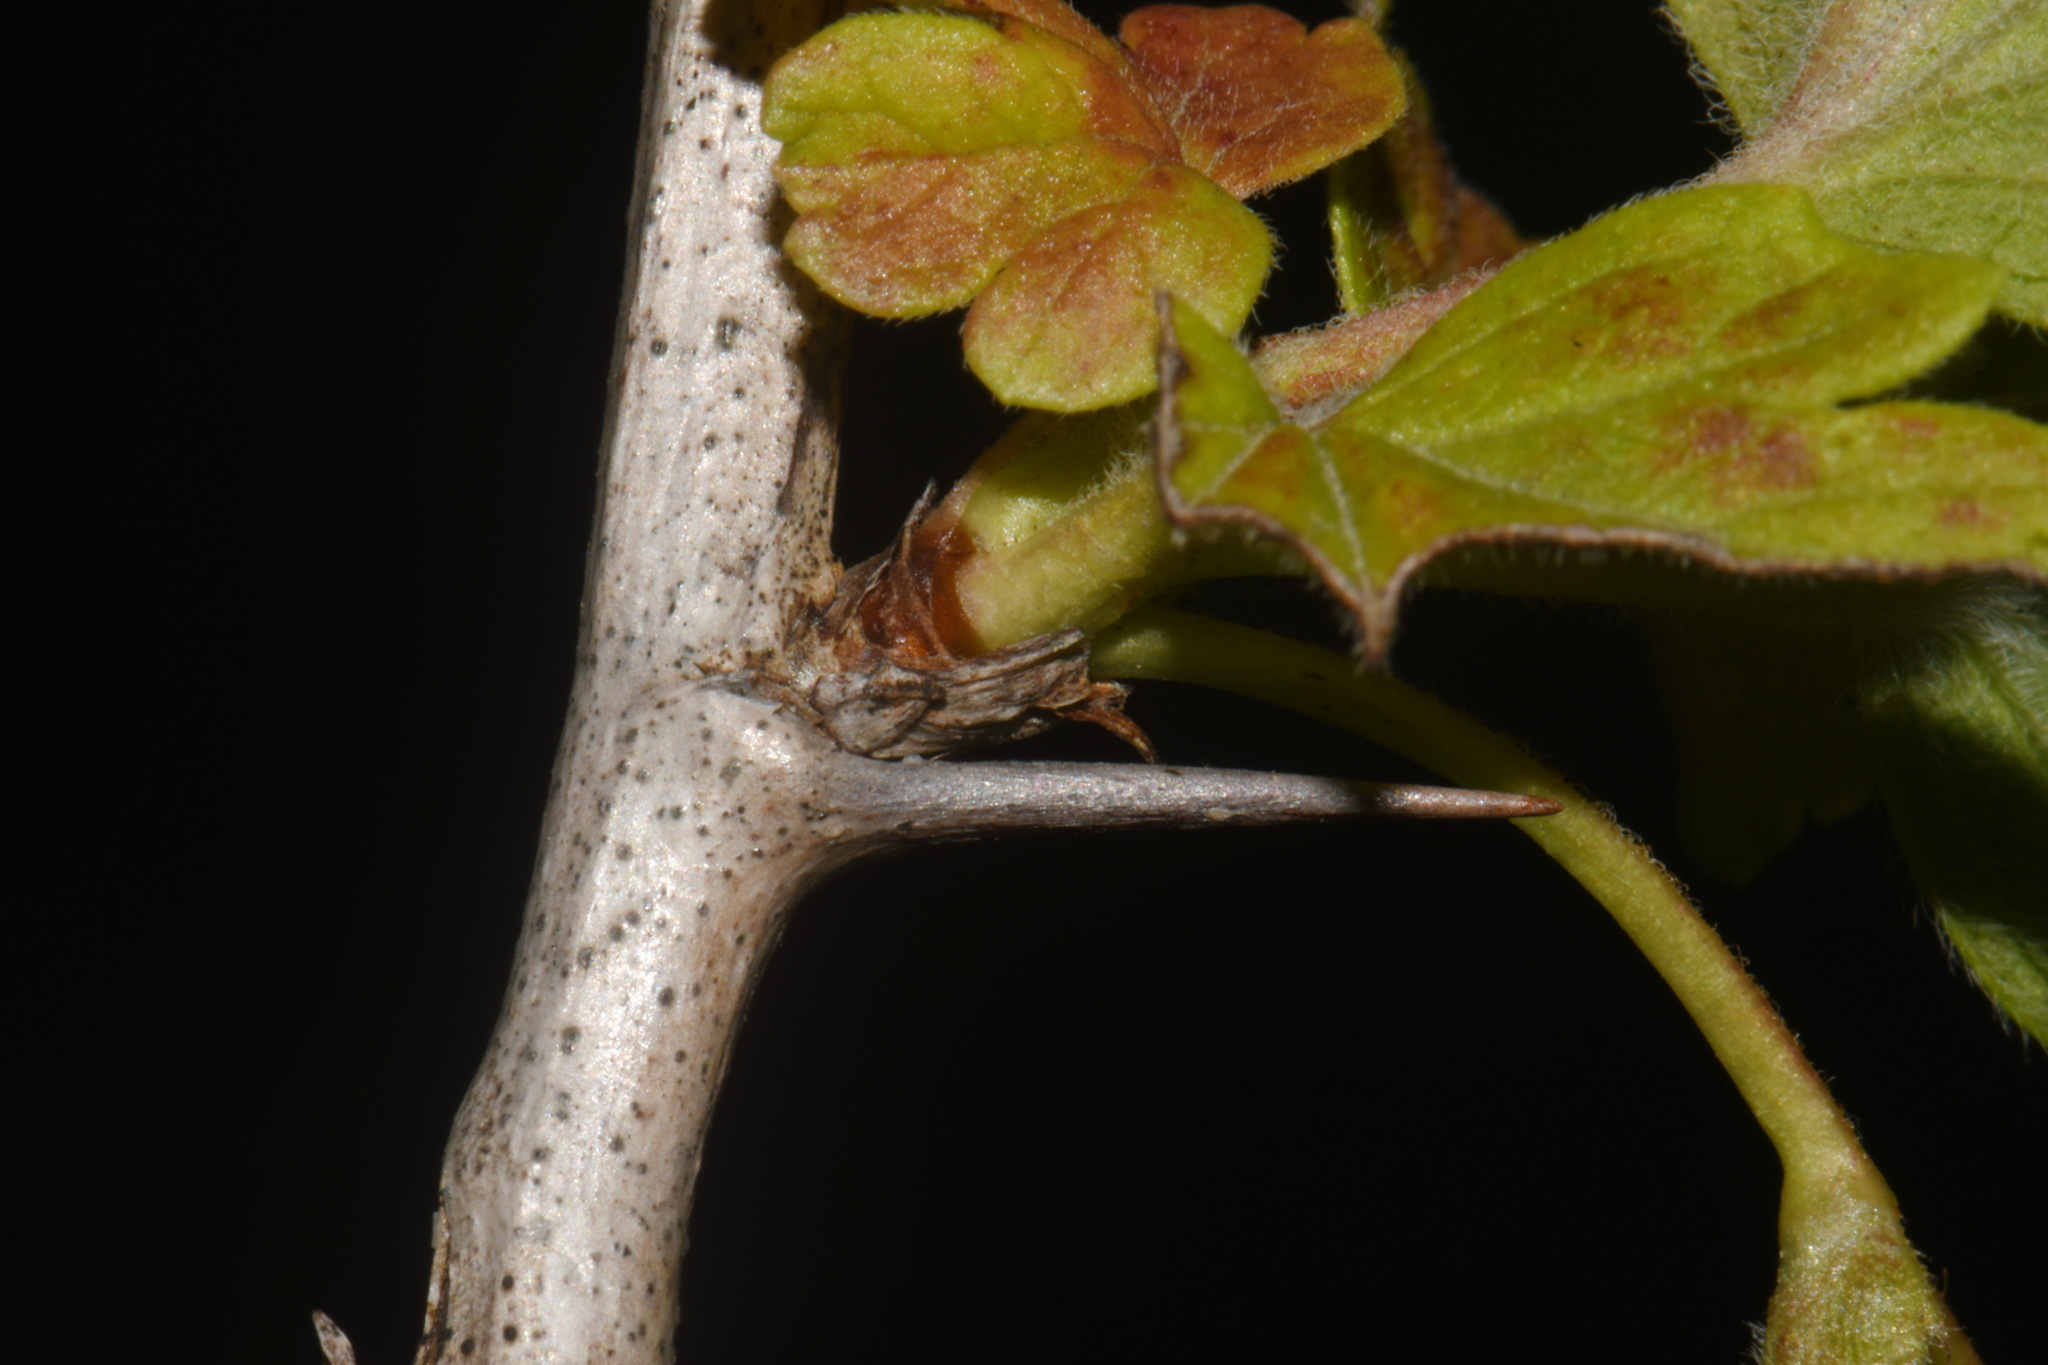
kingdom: Plantae
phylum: Tracheophyta
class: Magnoliopsida
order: Saxifragales
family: Grossulariaceae
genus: Ribes
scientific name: Ribes missouriense
